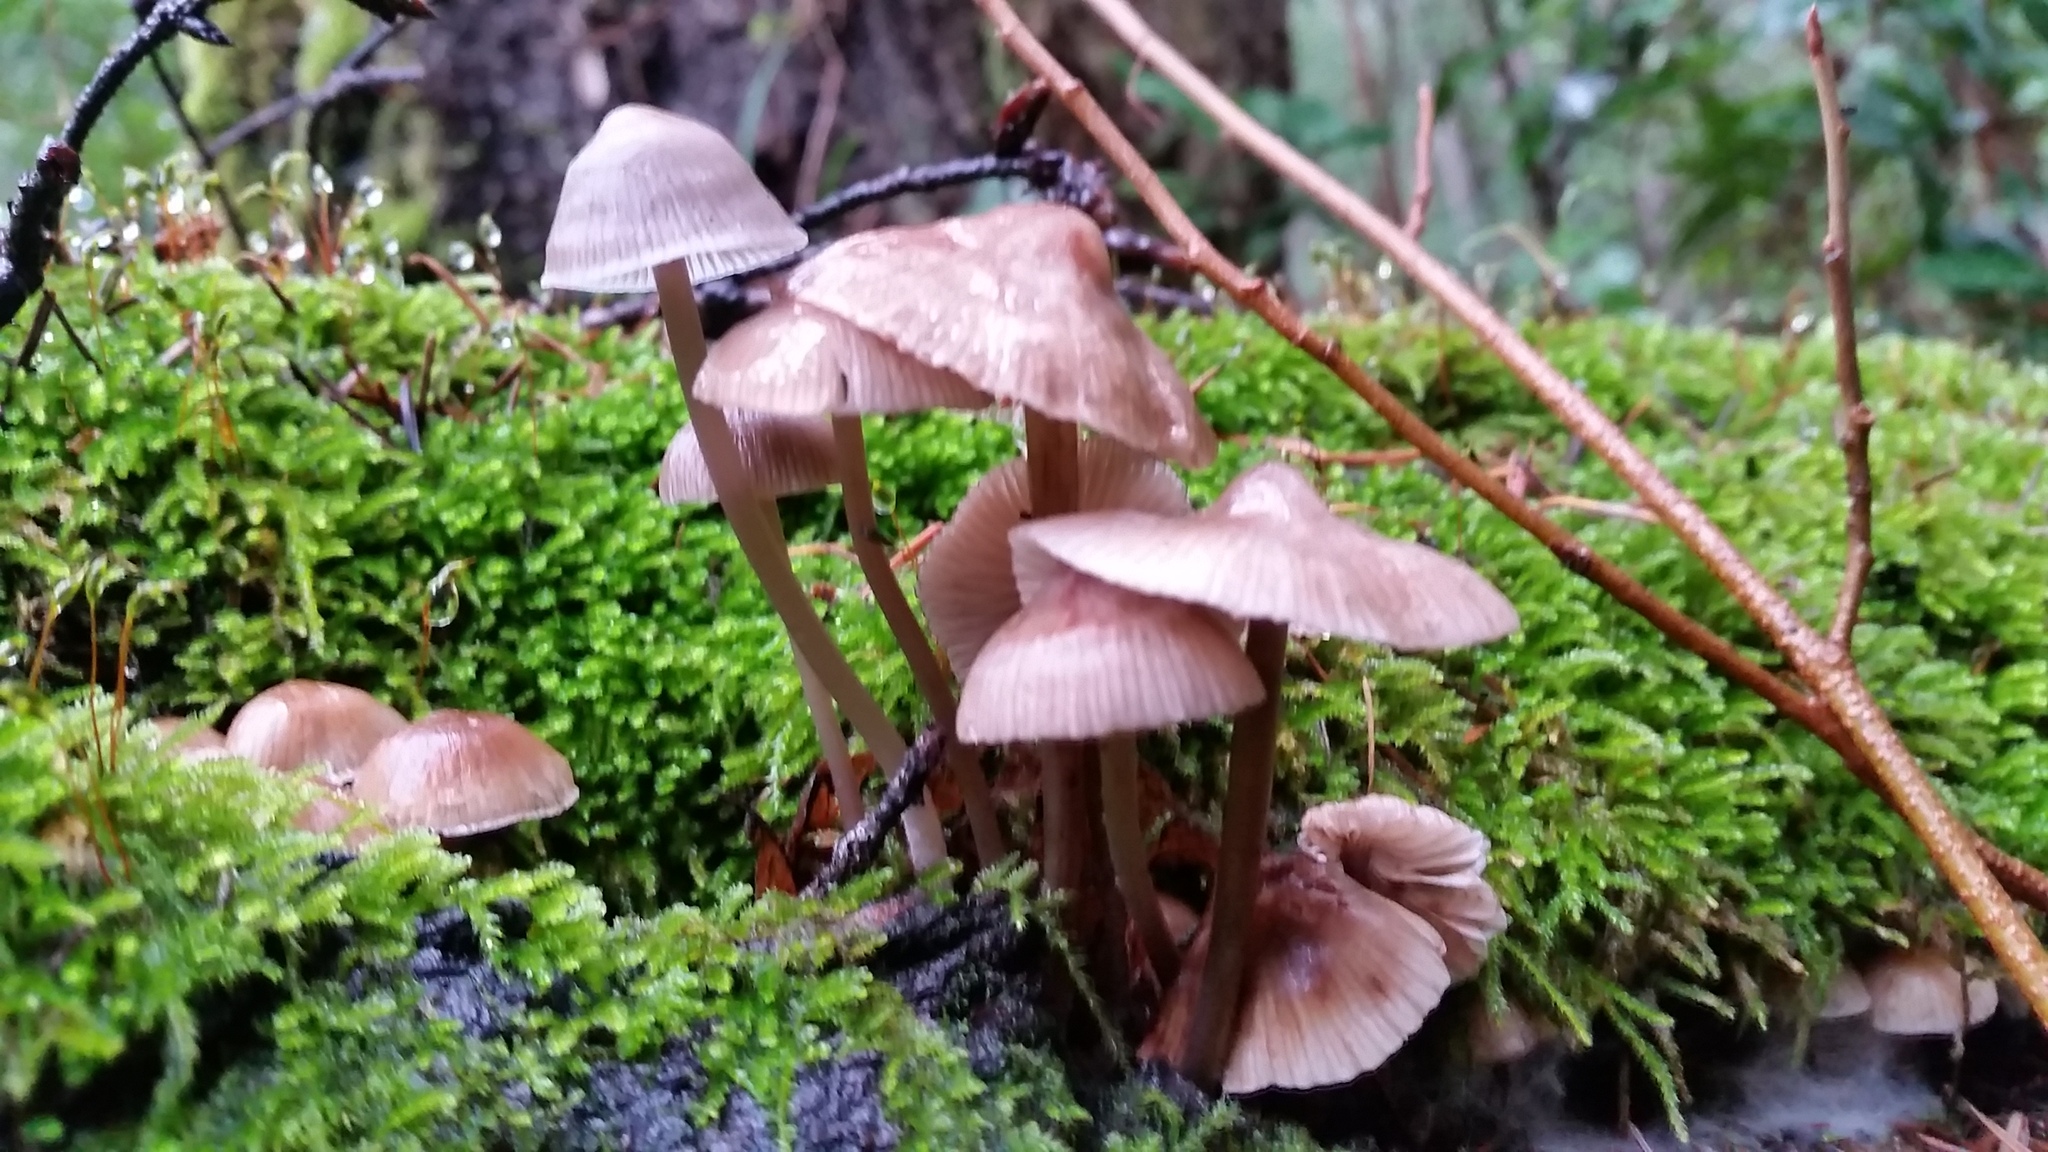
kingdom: Fungi
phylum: Basidiomycota
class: Agaricomycetes
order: Agaricales
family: Mycenaceae
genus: Mycena
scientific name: Mycena maculata
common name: Stained bonnet
